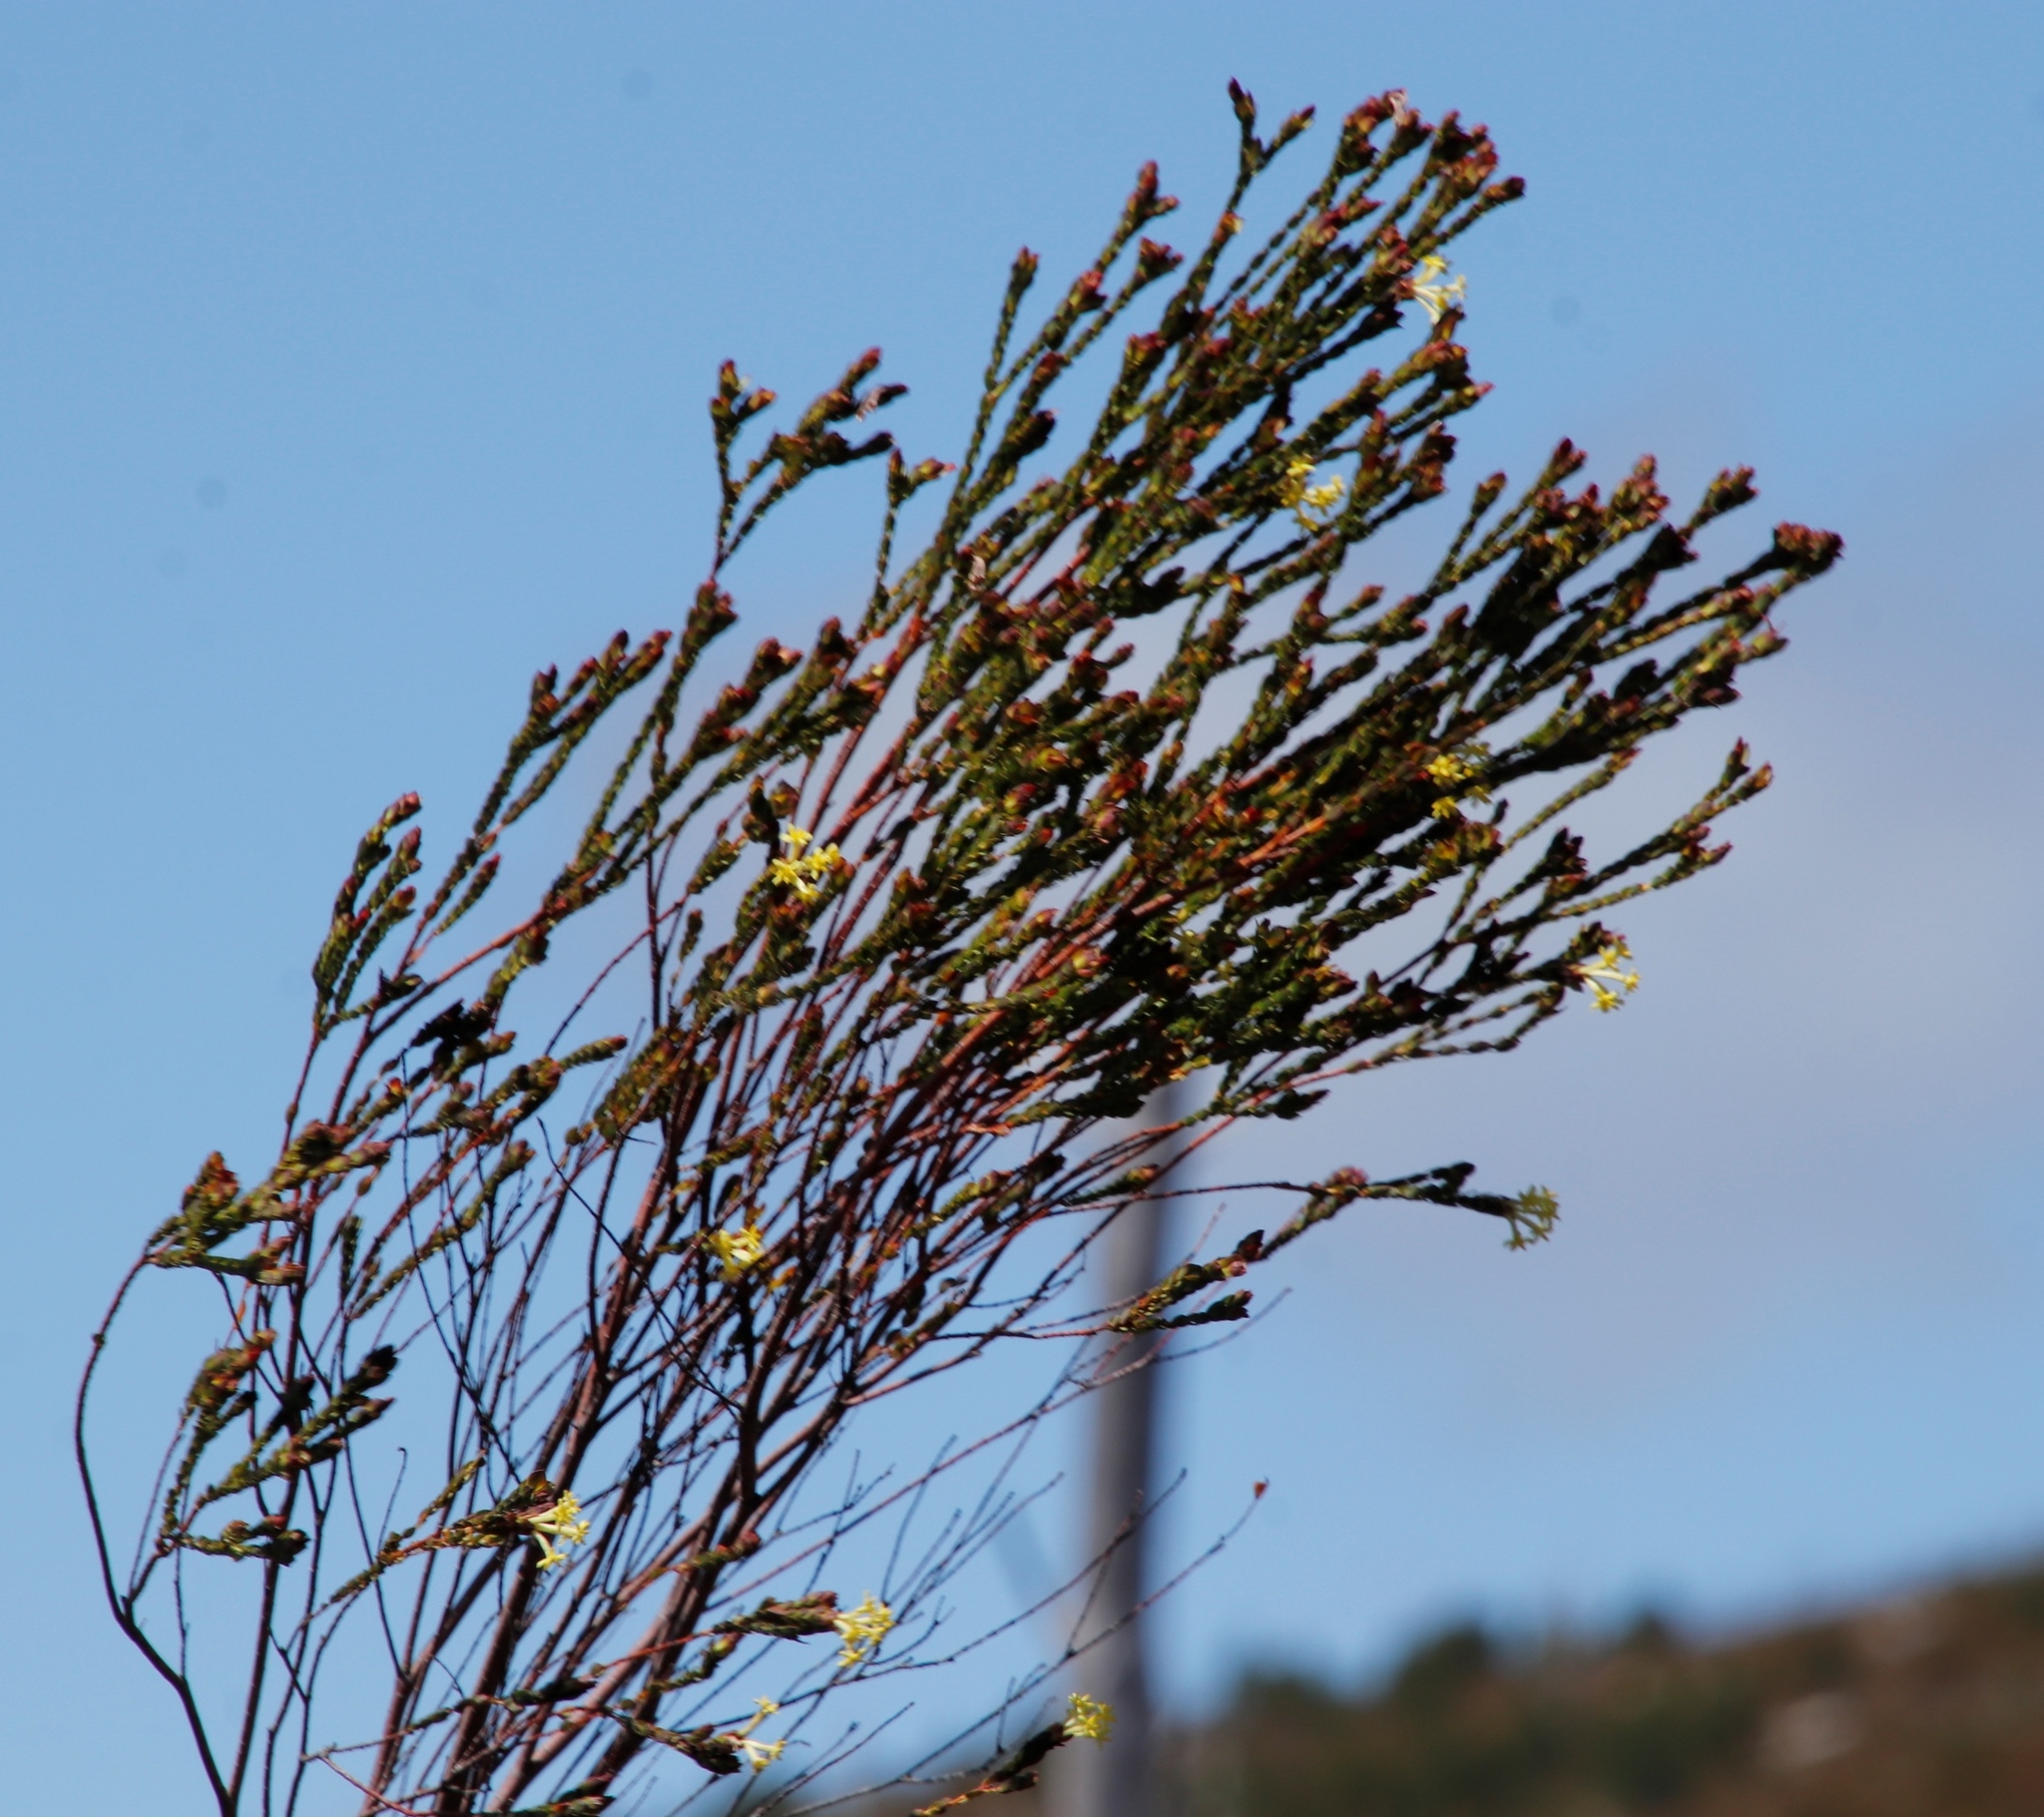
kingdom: Plantae
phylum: Tracheophyta
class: Magnoliopsida
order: Malvales
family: Thymelaeaceae
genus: Gnidia
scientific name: Gnidia oppositifolia
